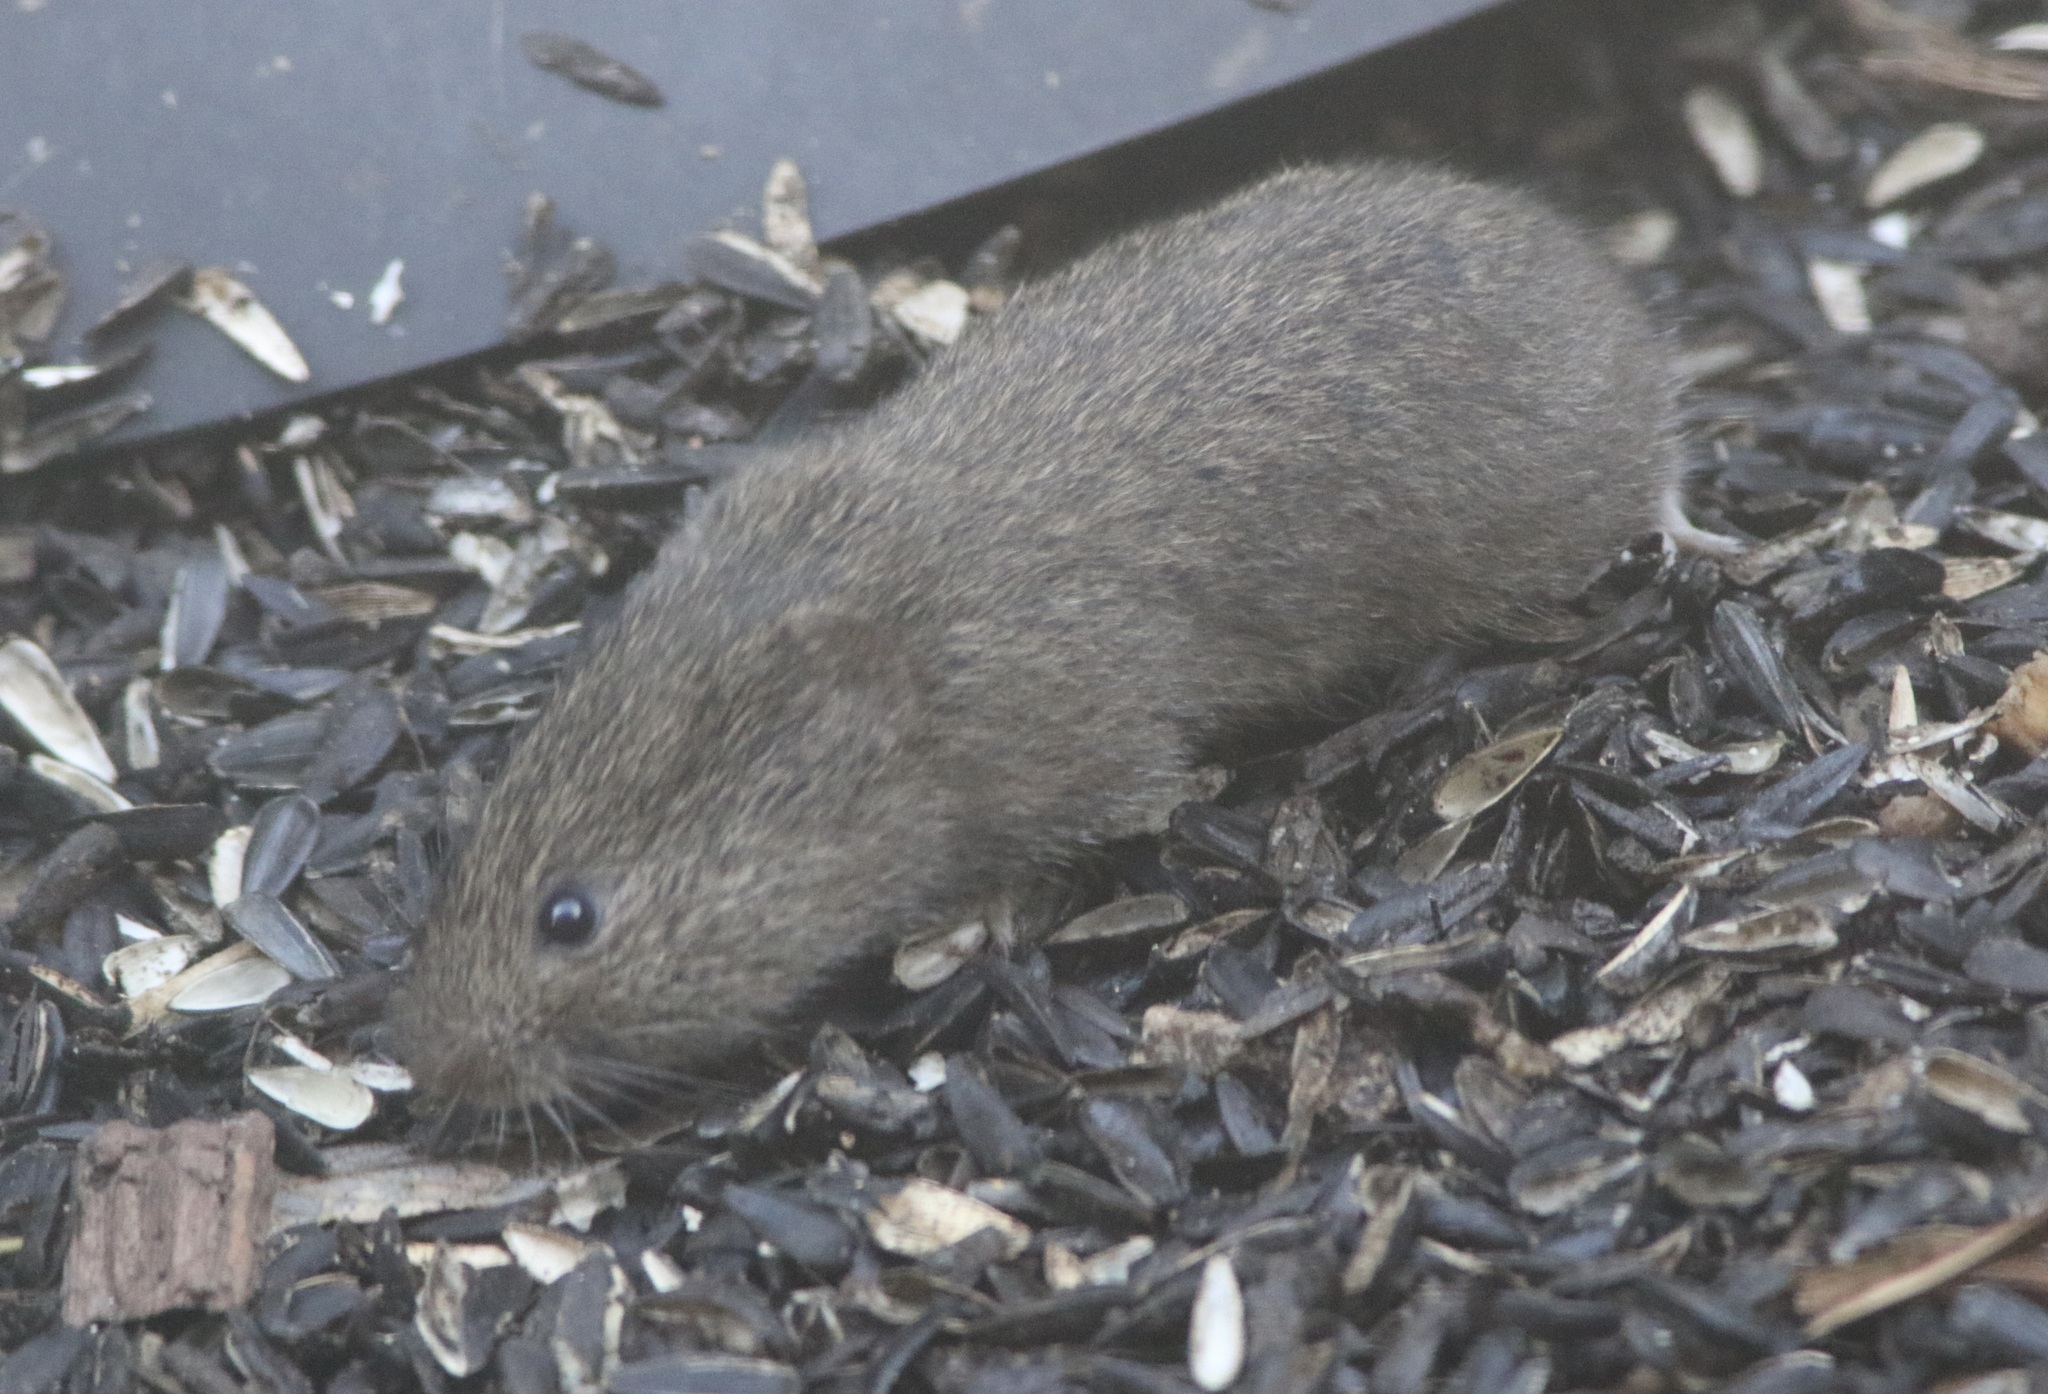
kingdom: Animalia
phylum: Chordata
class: Mammalia
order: Rodentia
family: Cricetidae
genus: Microtus
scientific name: Microtus californicus
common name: California vole
